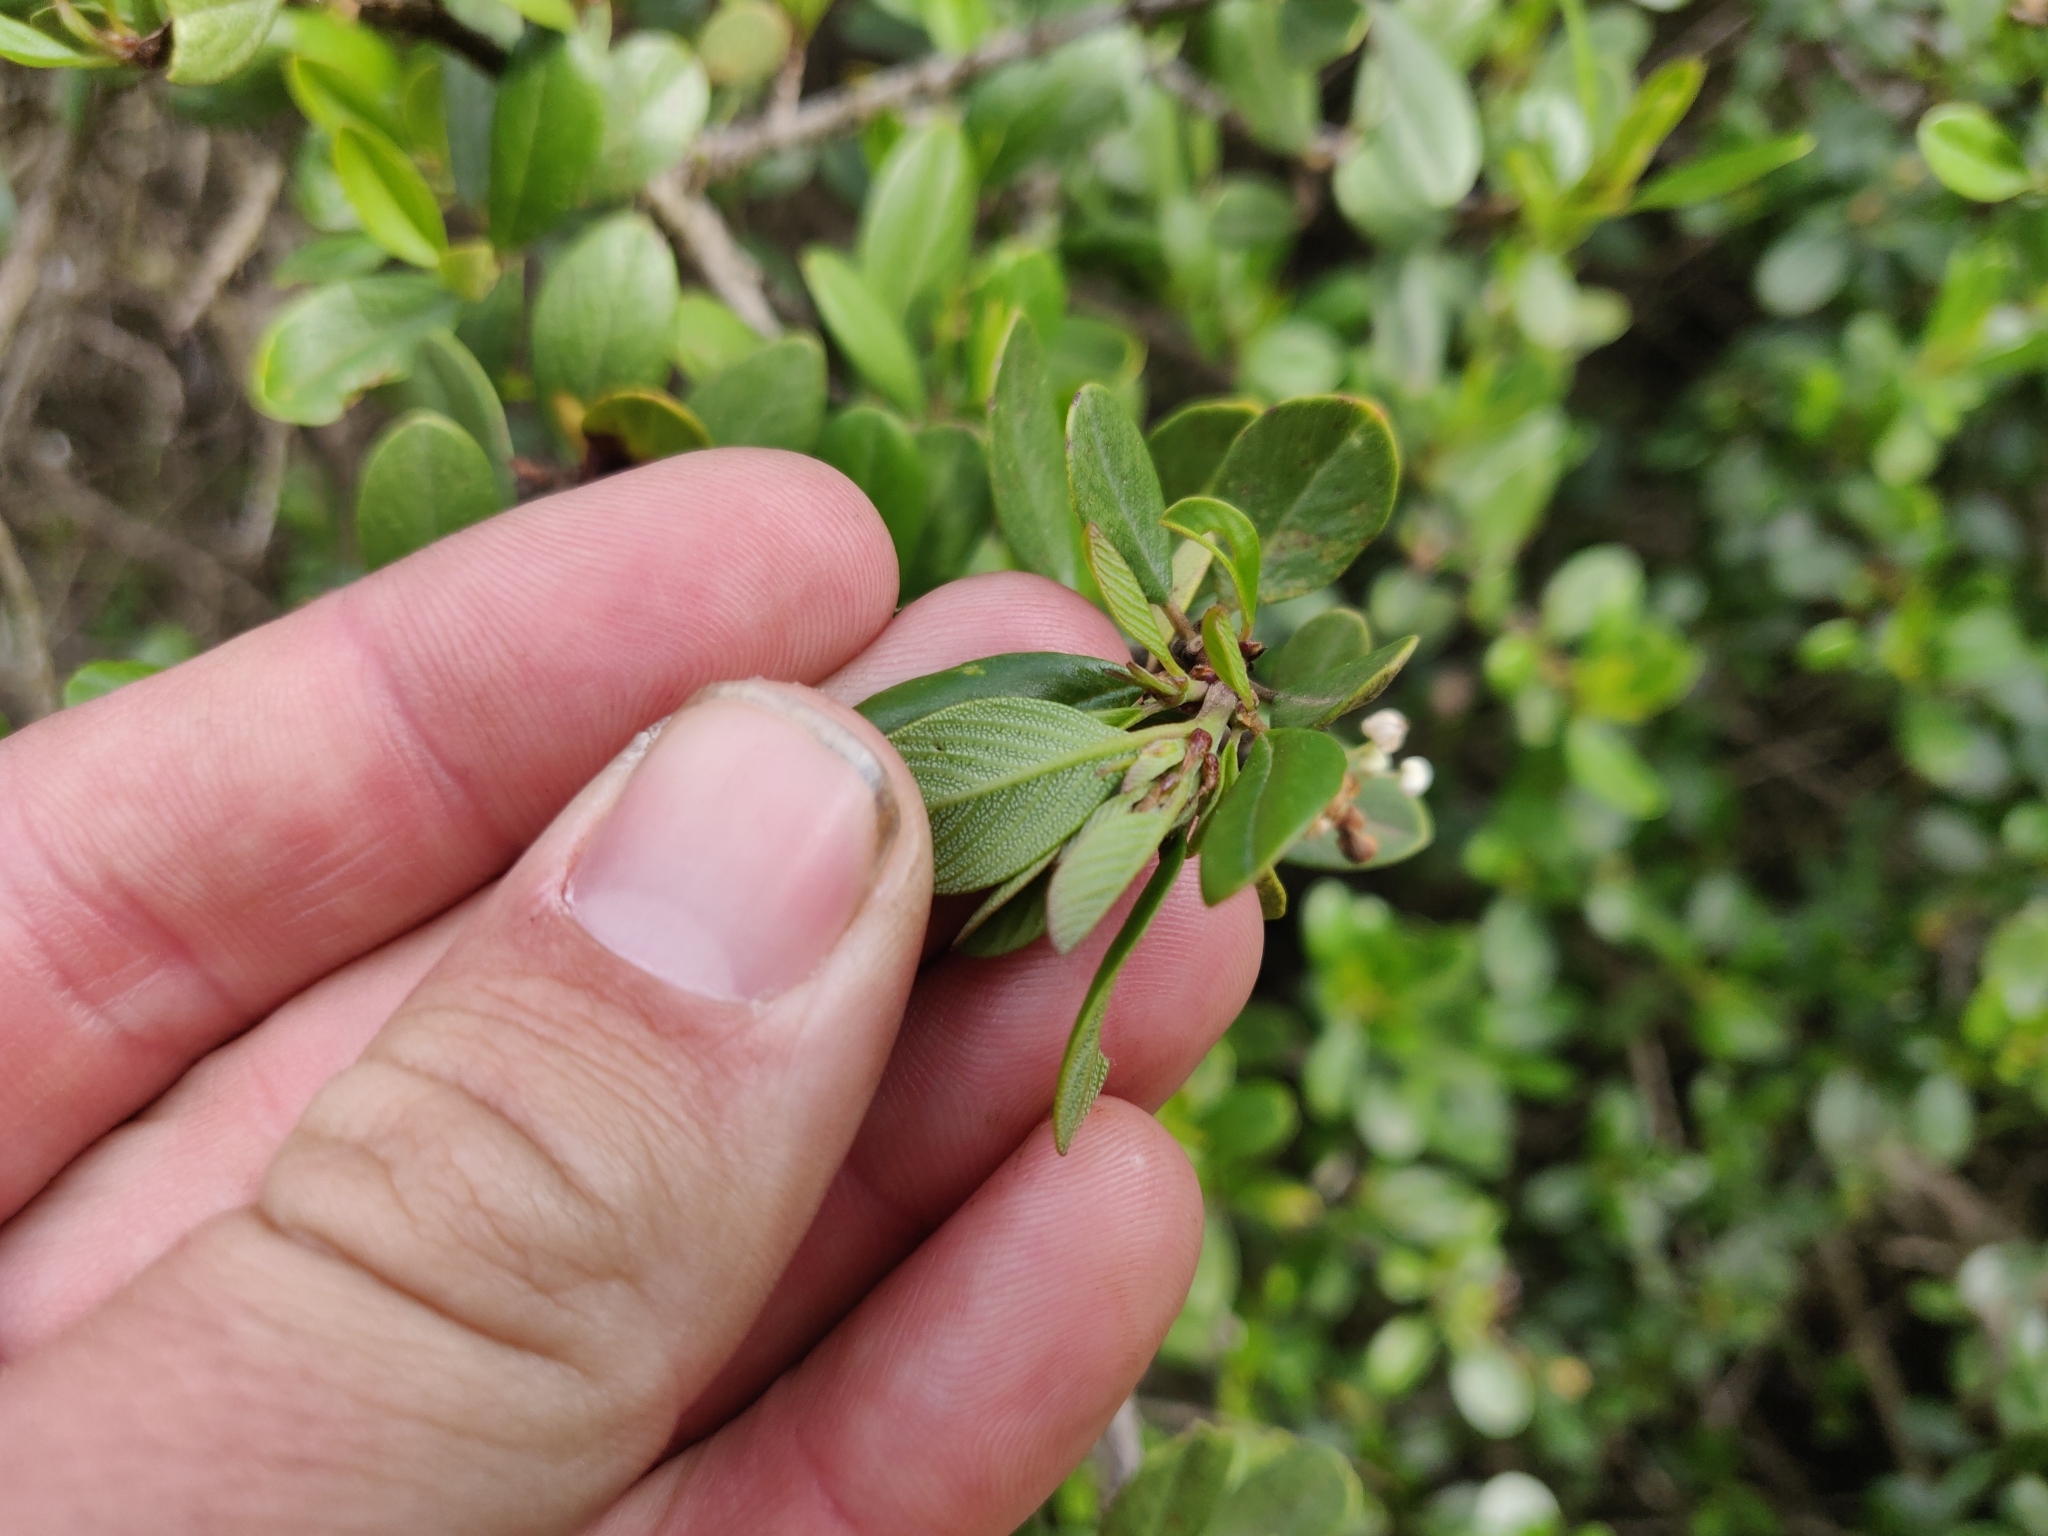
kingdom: Plantae
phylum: Tracheophyta
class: Magnoliopsida
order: Rosales
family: Rhamnaceae
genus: Ceanothus
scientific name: Ceanothus cuneatus
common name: Cuneate ceanothus
